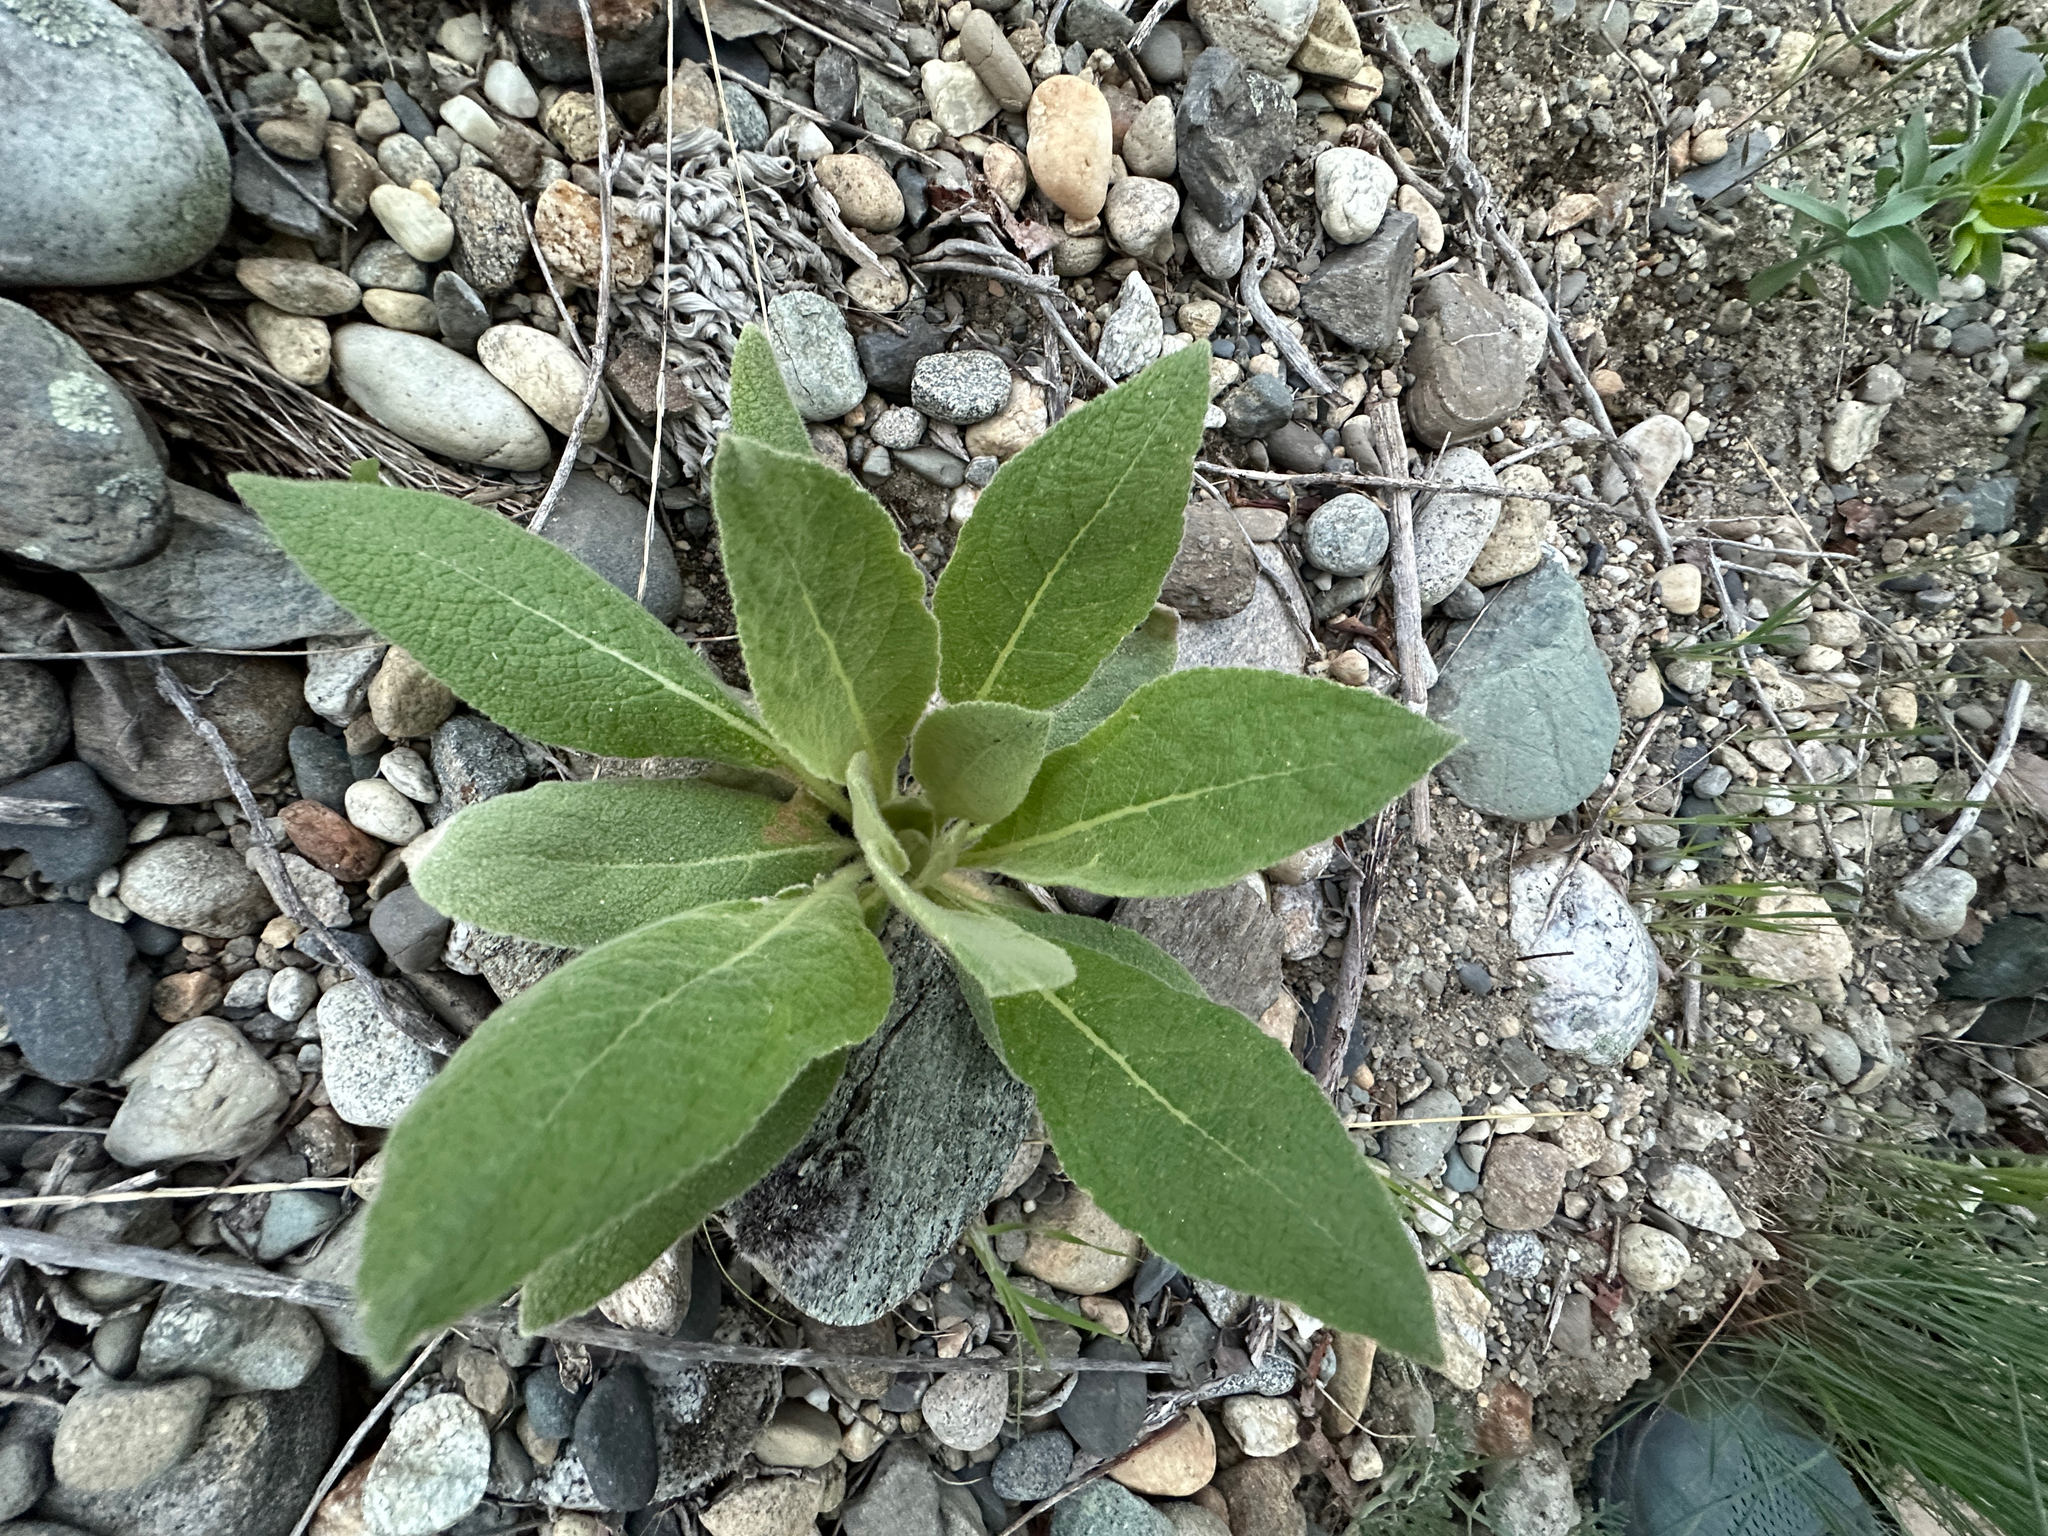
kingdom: Plantae
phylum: Tracheophyta
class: Magnoliopsida
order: Lamiales
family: Scrophulariaceae
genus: Verbascum
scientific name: Verbascum thapsus
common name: Common mullein
